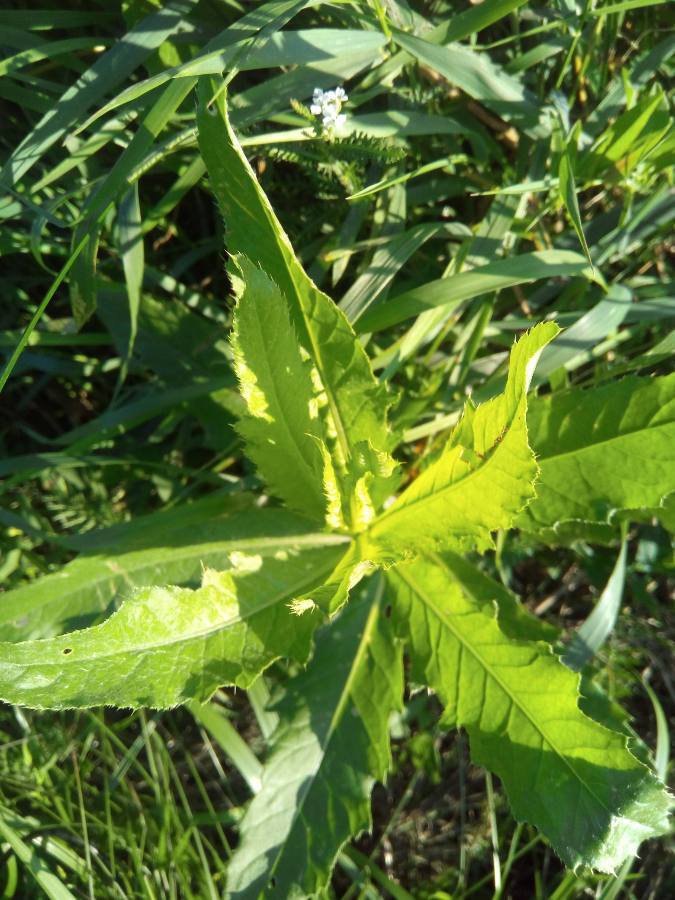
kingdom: Plantae
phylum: Tracheophyta
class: Magnoliopsida
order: Asterales
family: Asteraceae
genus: Cirsium
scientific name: Cirsium arvense
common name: Creeping thistle
